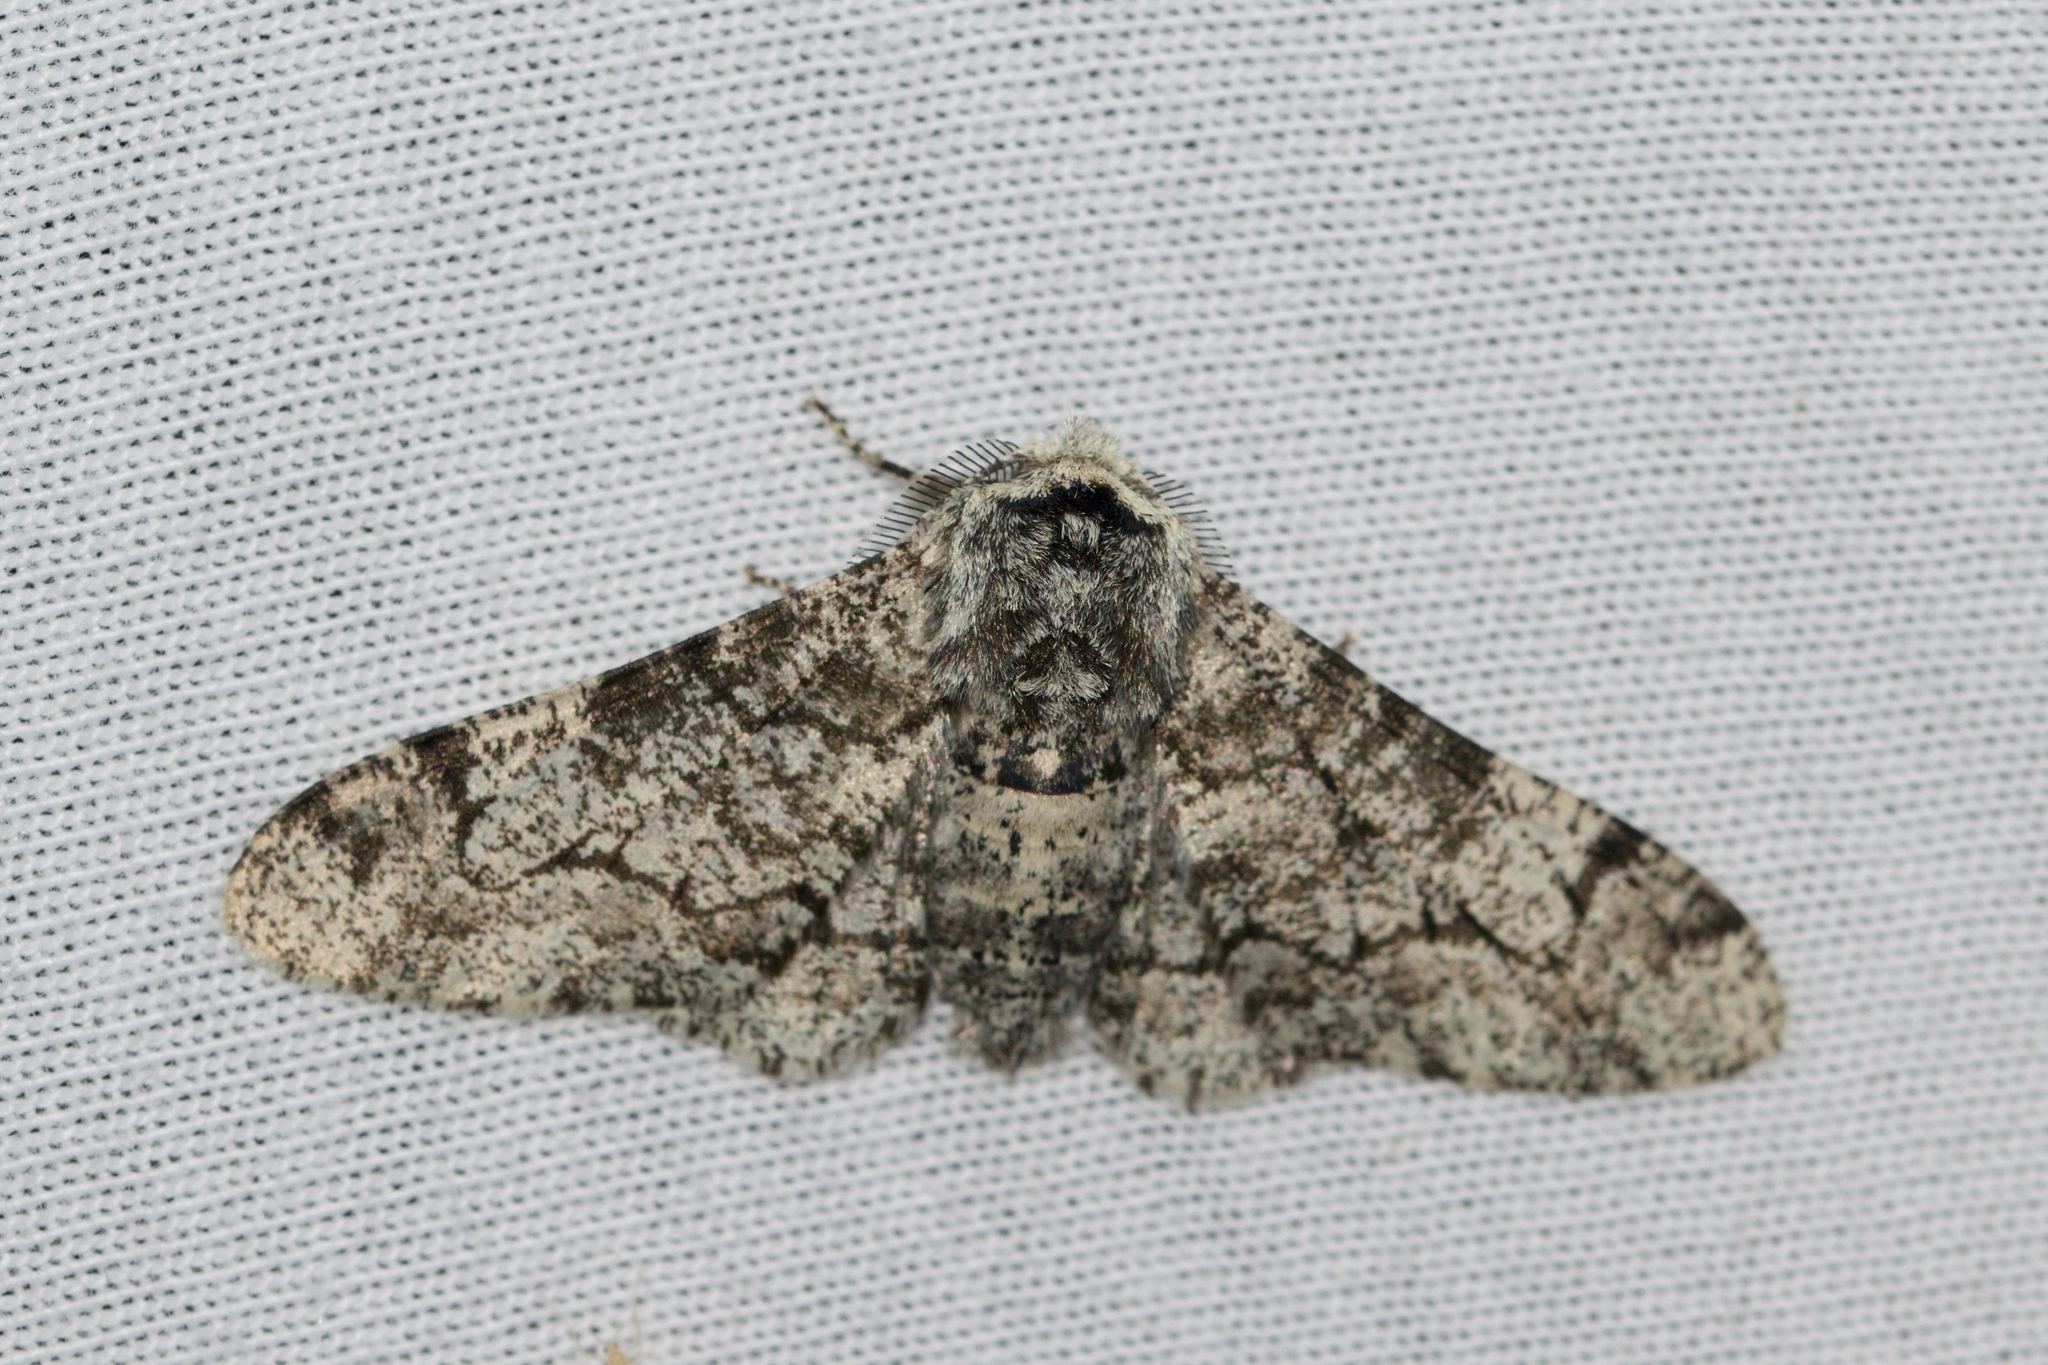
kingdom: Animalia
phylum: Arthropoda
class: Insecta
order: Lepidoptera
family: Geometridae
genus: Biston
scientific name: Biston betularia
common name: Peppered moth
